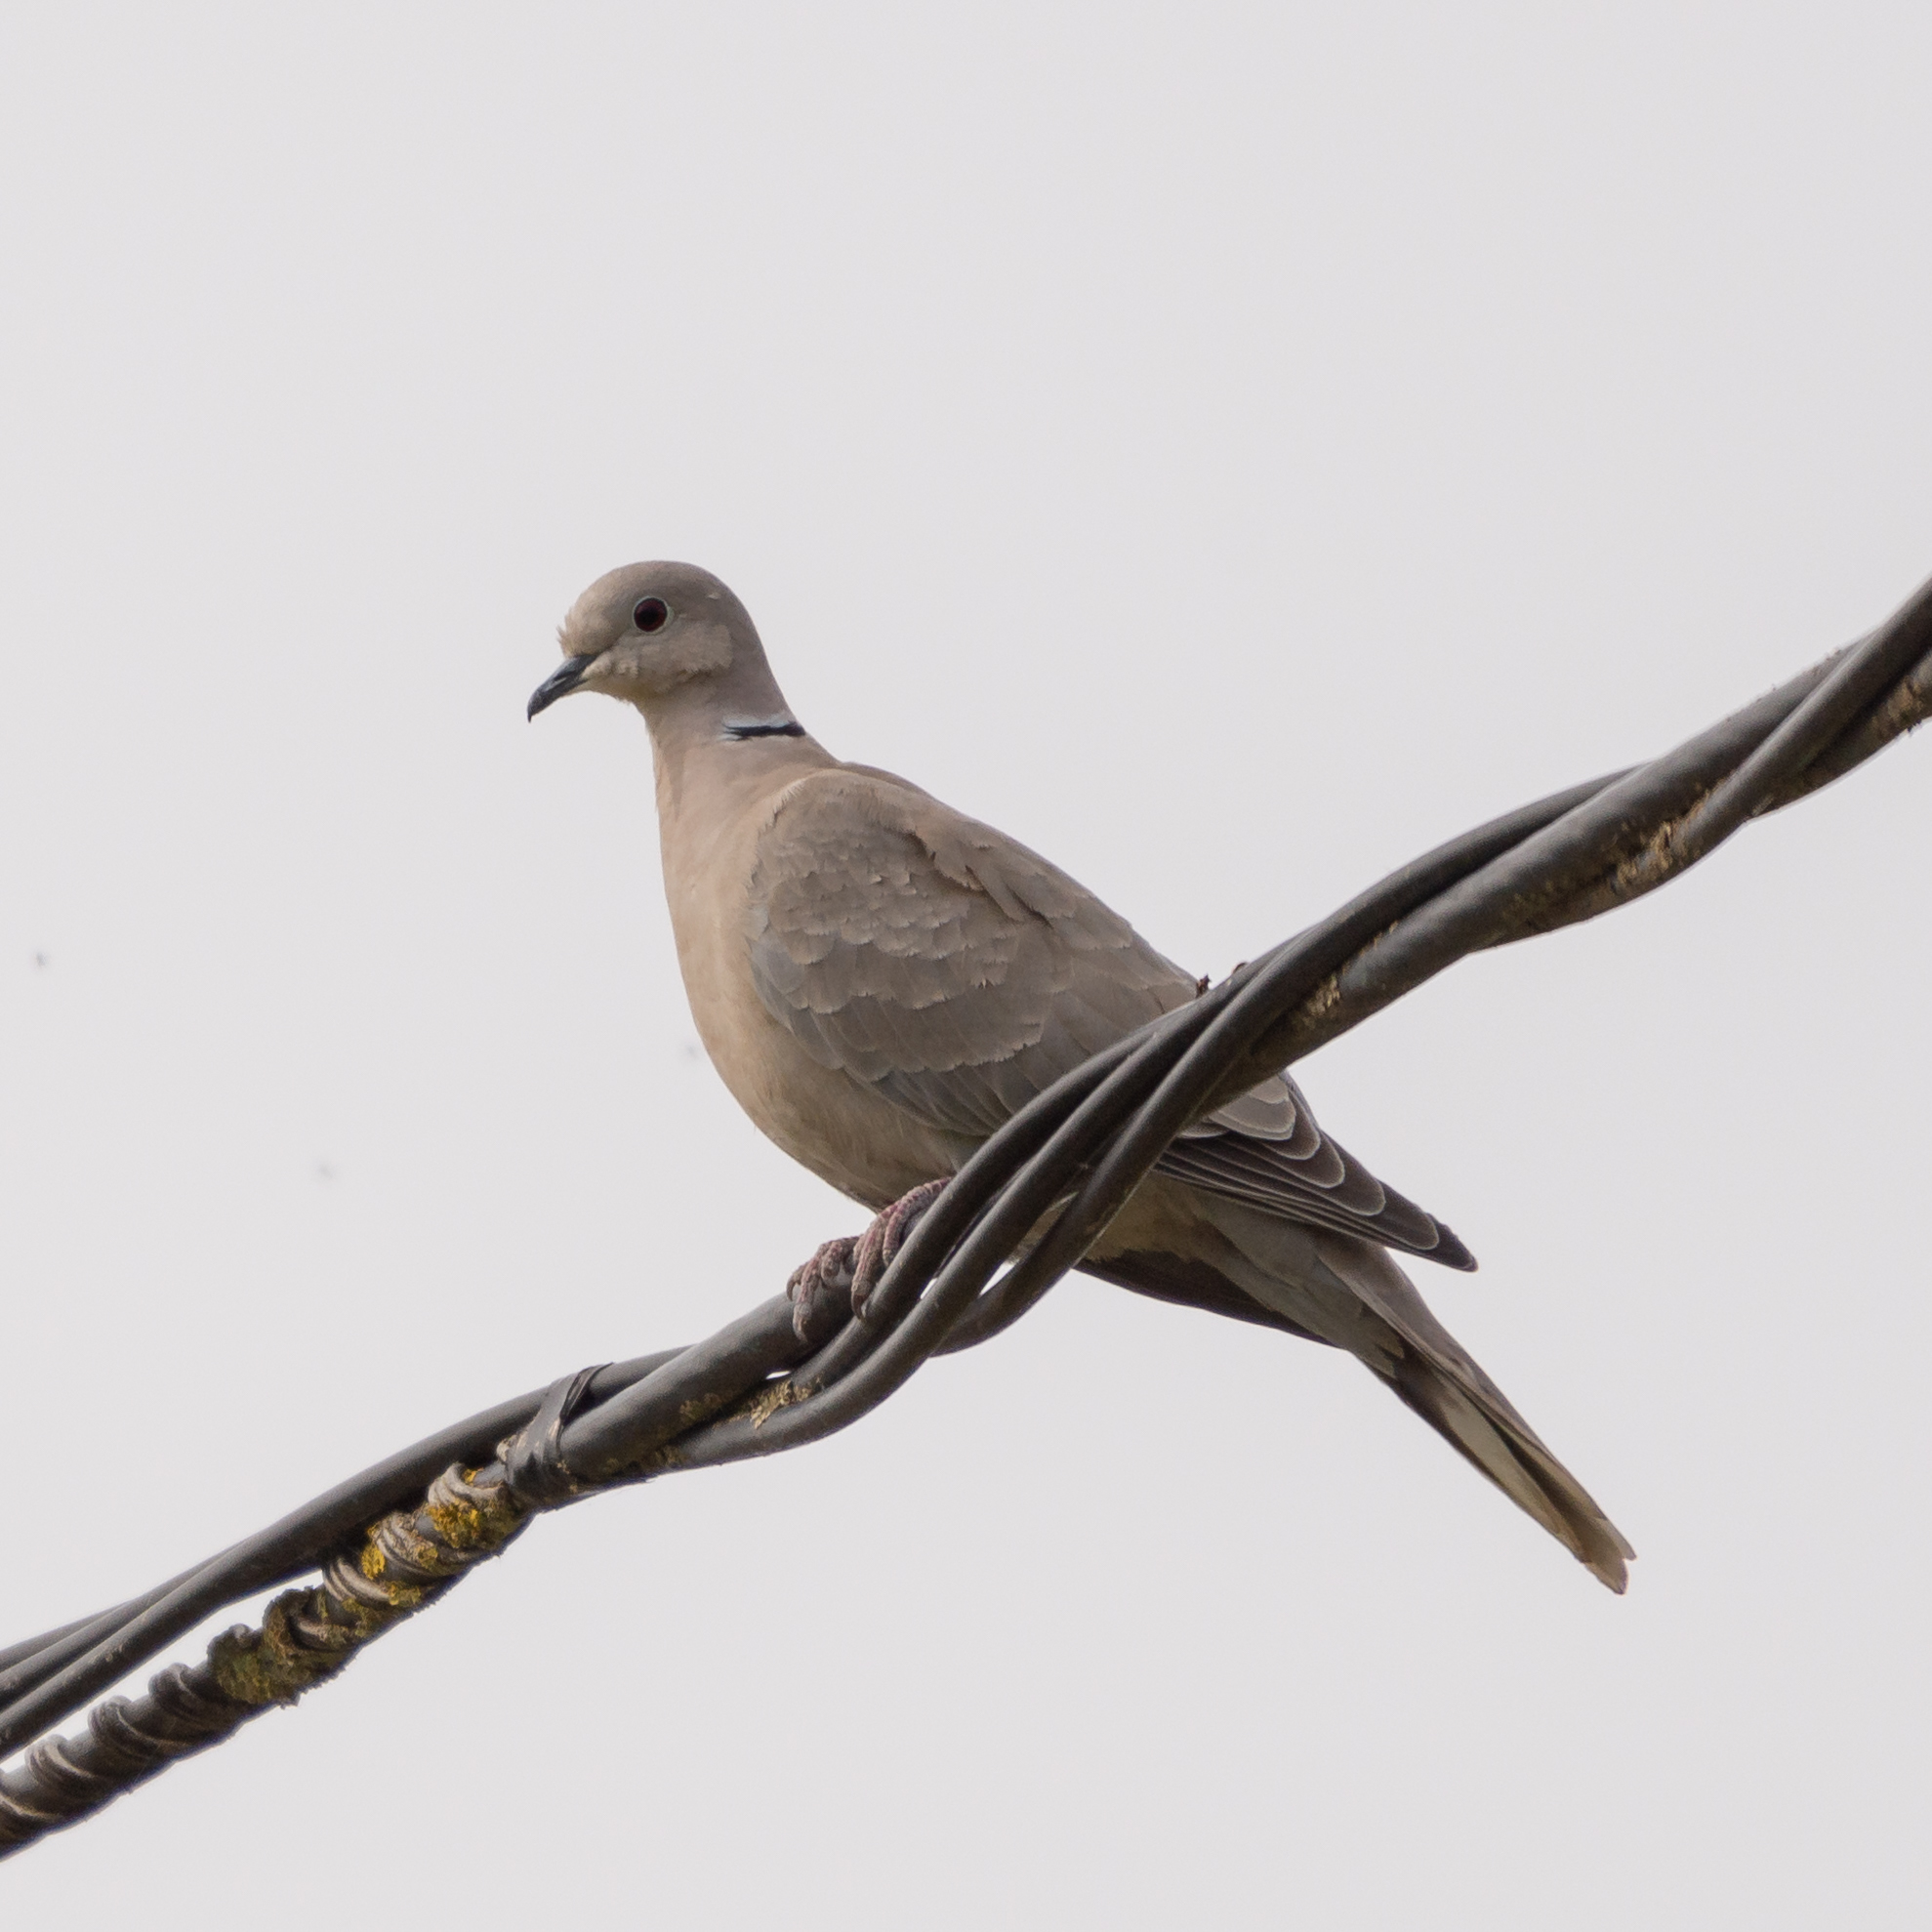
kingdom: Animalia
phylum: Chordata
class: Aves
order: Columbiformes
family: Columbidae
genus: Streptopelia
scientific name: Streptopelia decaocto
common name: Eurasian collared dove
